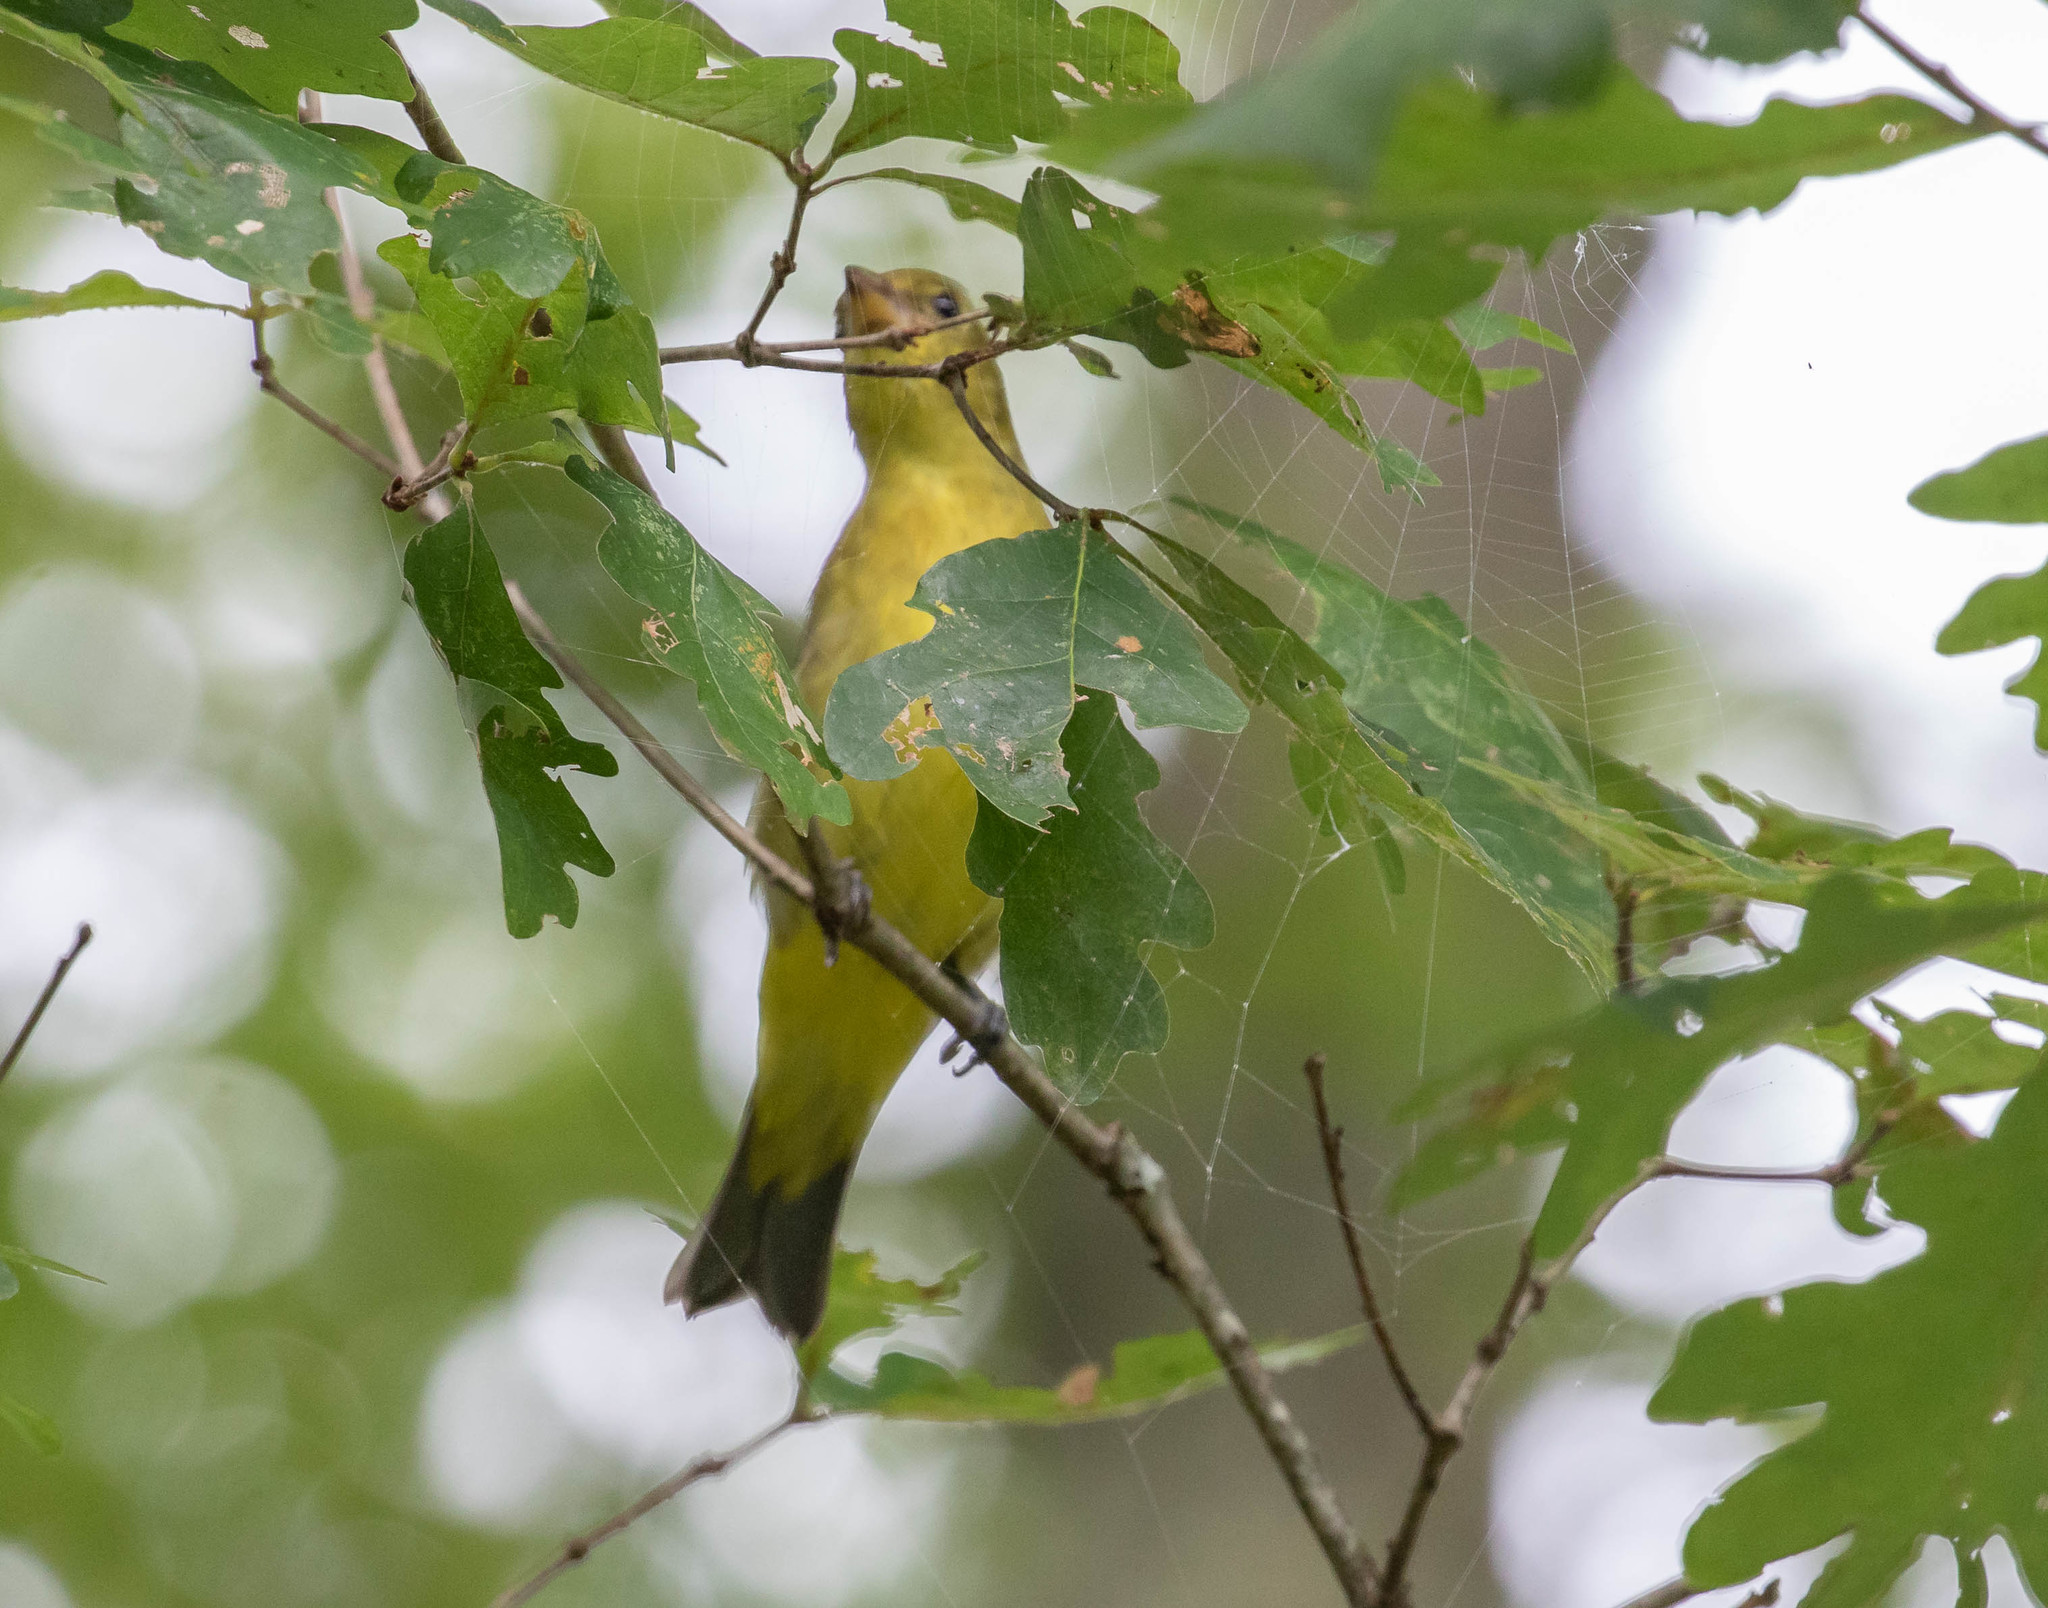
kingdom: Animalia
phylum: Chordata
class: Aves
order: Passeriformes
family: Cardinalidae
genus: Piranga
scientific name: Piranga olivacea
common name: Scarlet tanager
